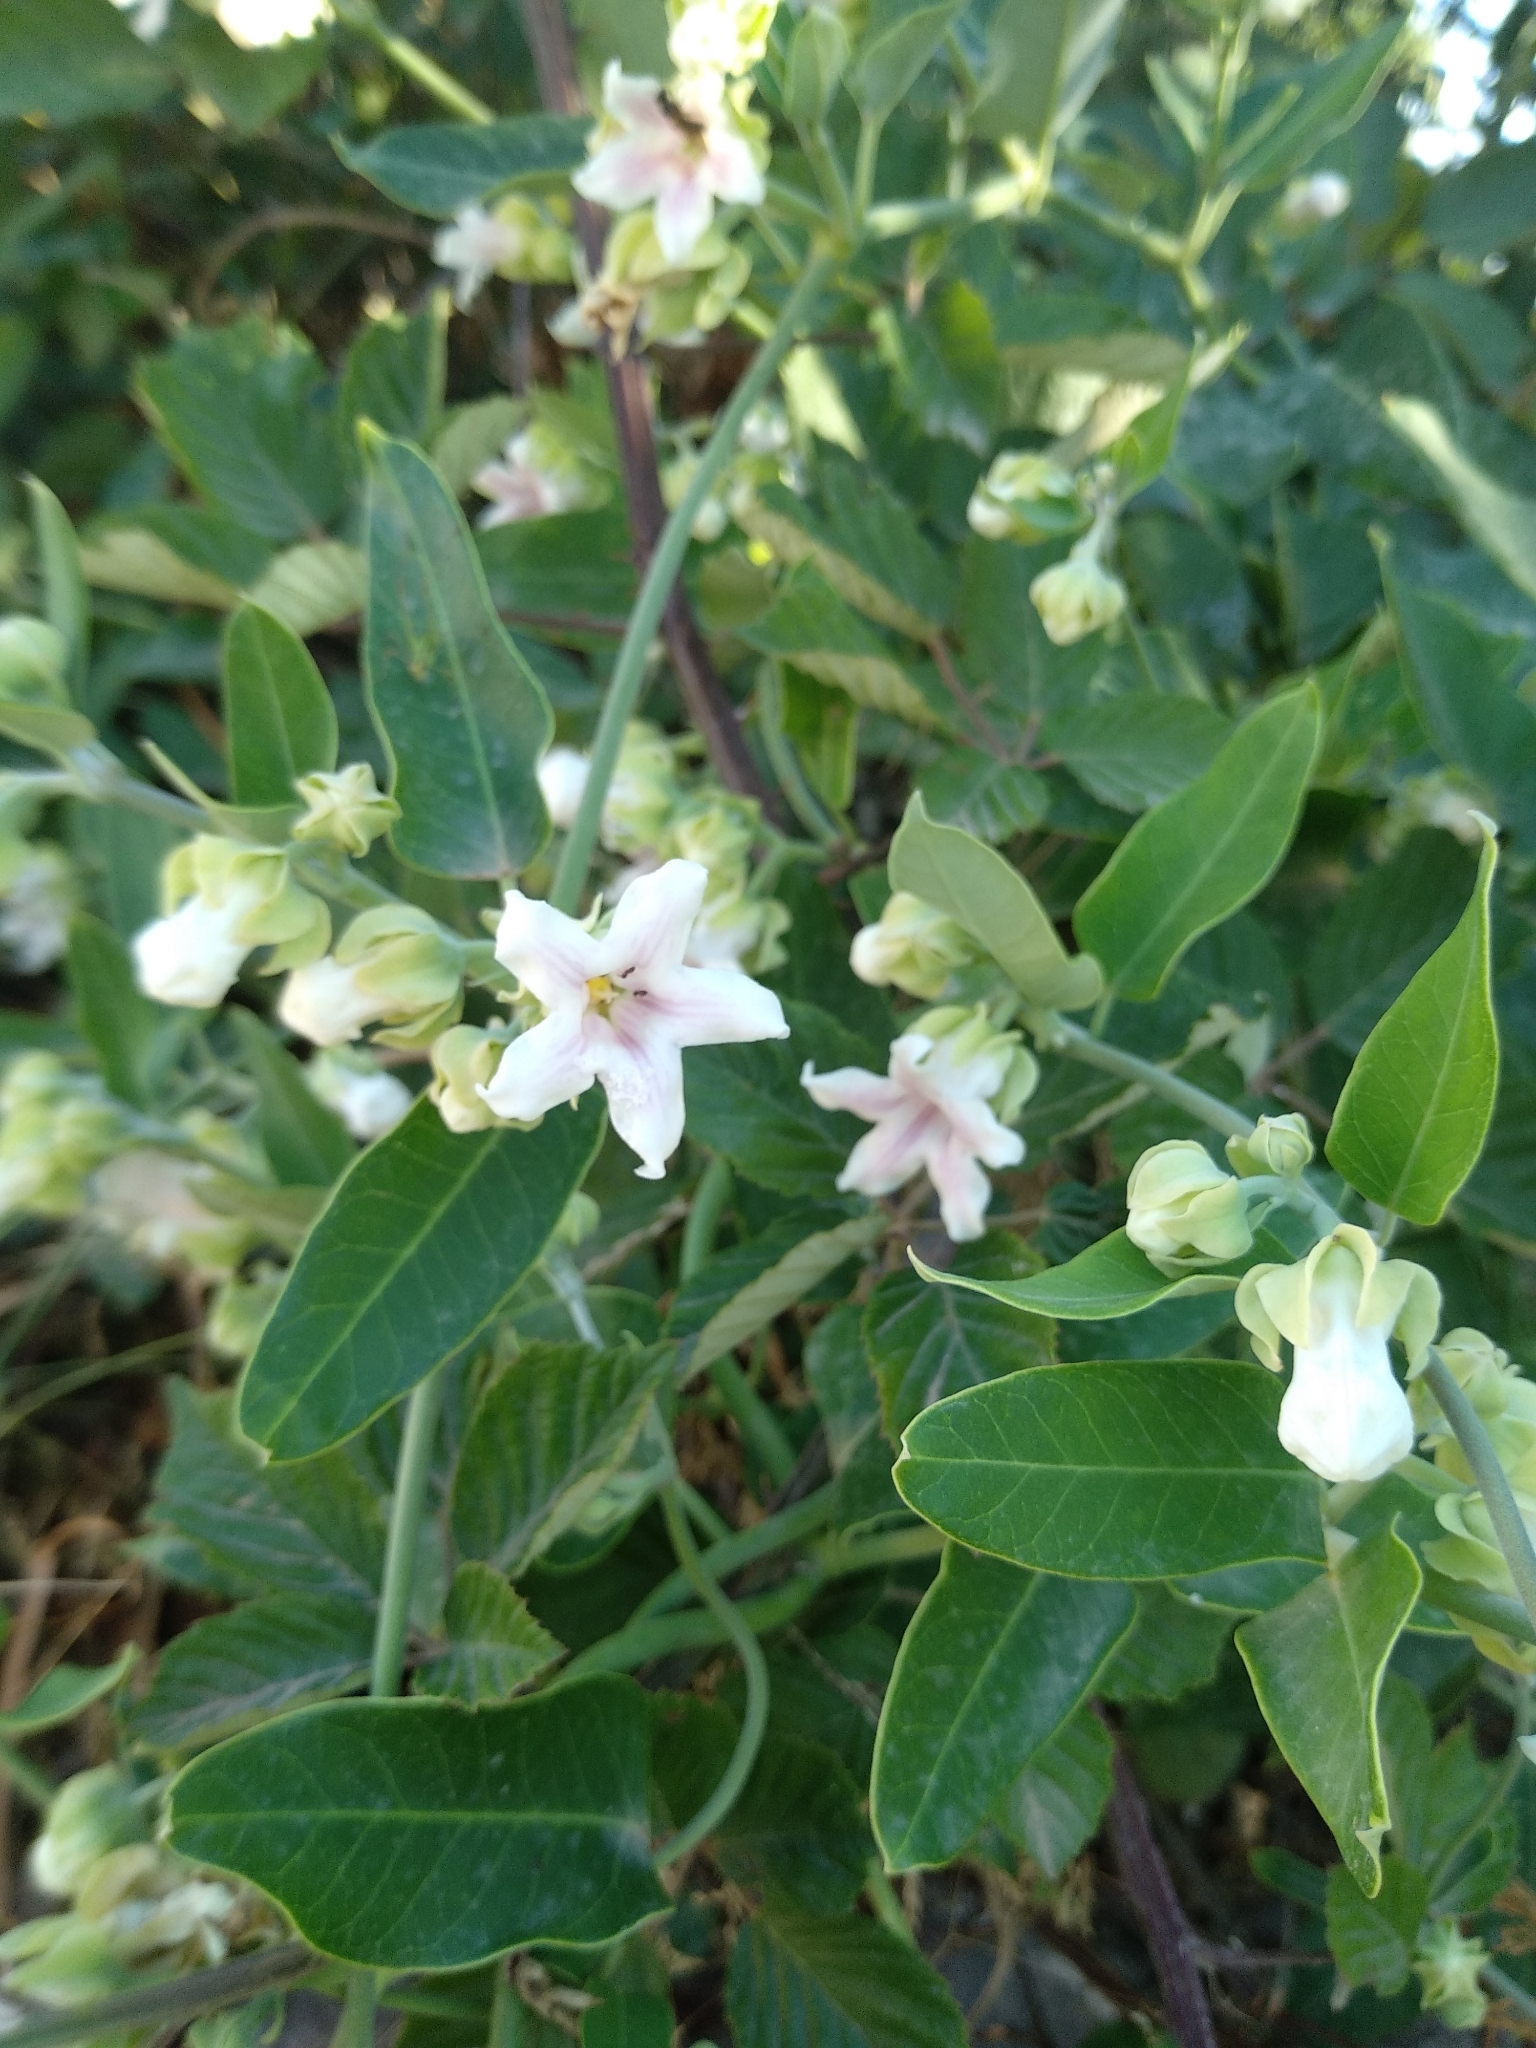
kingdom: Plantae
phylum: Tracheophyta
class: Magnoliopsida
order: Gentianales
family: Apocynaceae
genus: Araujia
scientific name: Araujia sericifera
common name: White bladderflower
